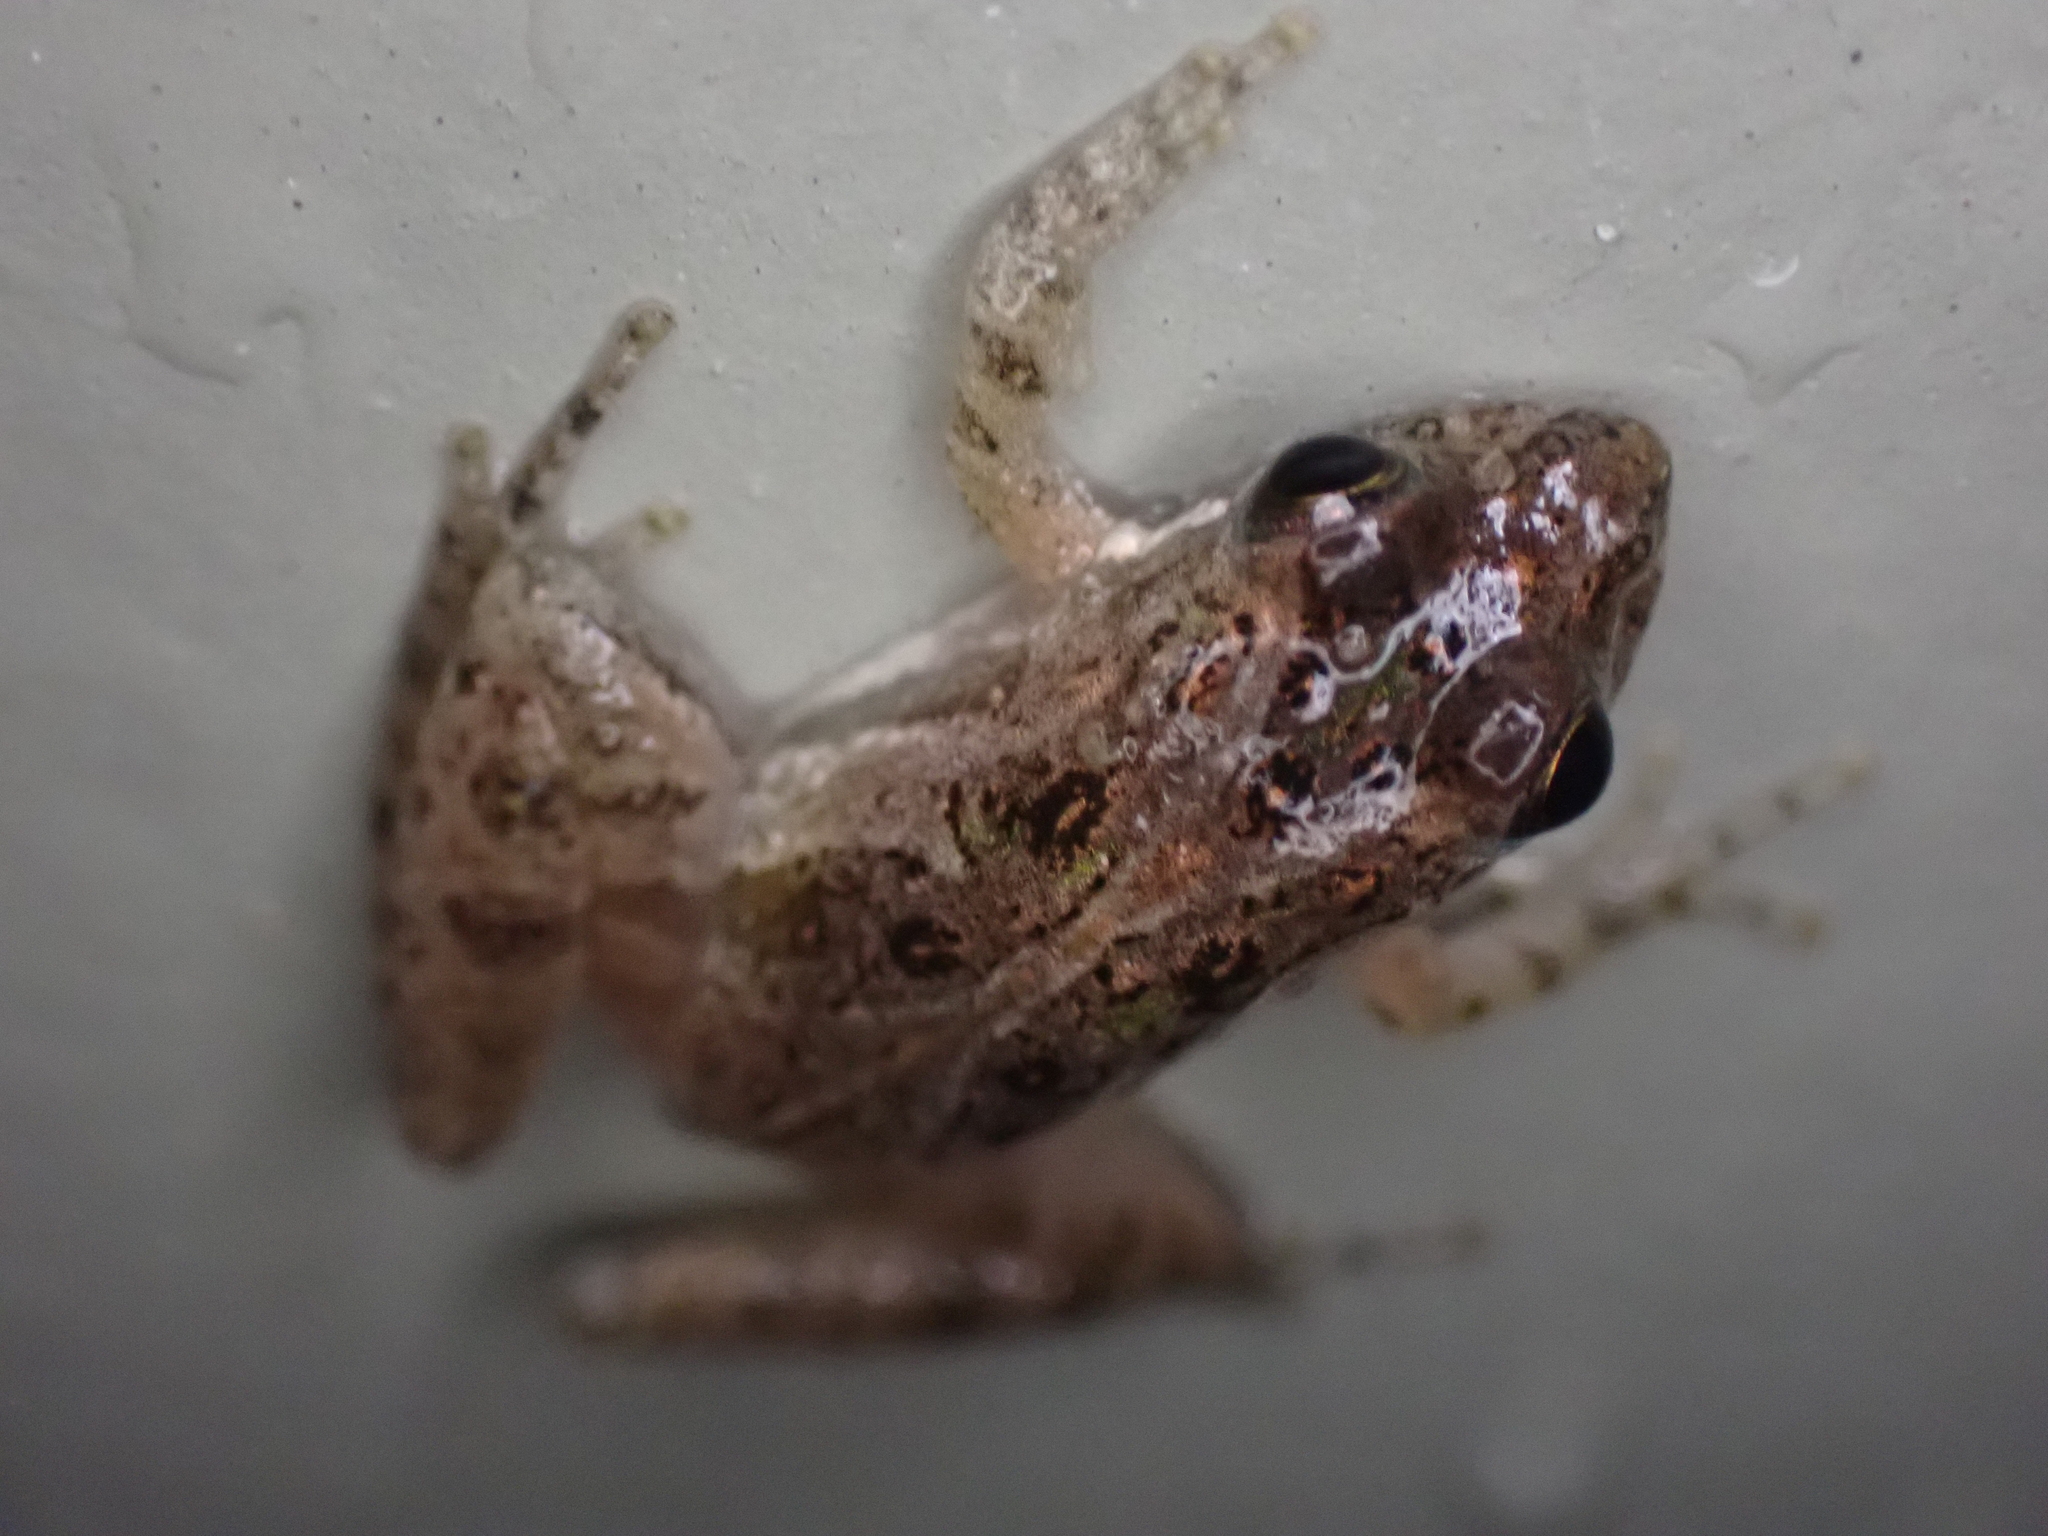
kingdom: Animalia
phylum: Chordata
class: Amphibia
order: Anura
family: Hylidae
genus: Acris
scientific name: Acris gryllus
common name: Southern cricket frog
